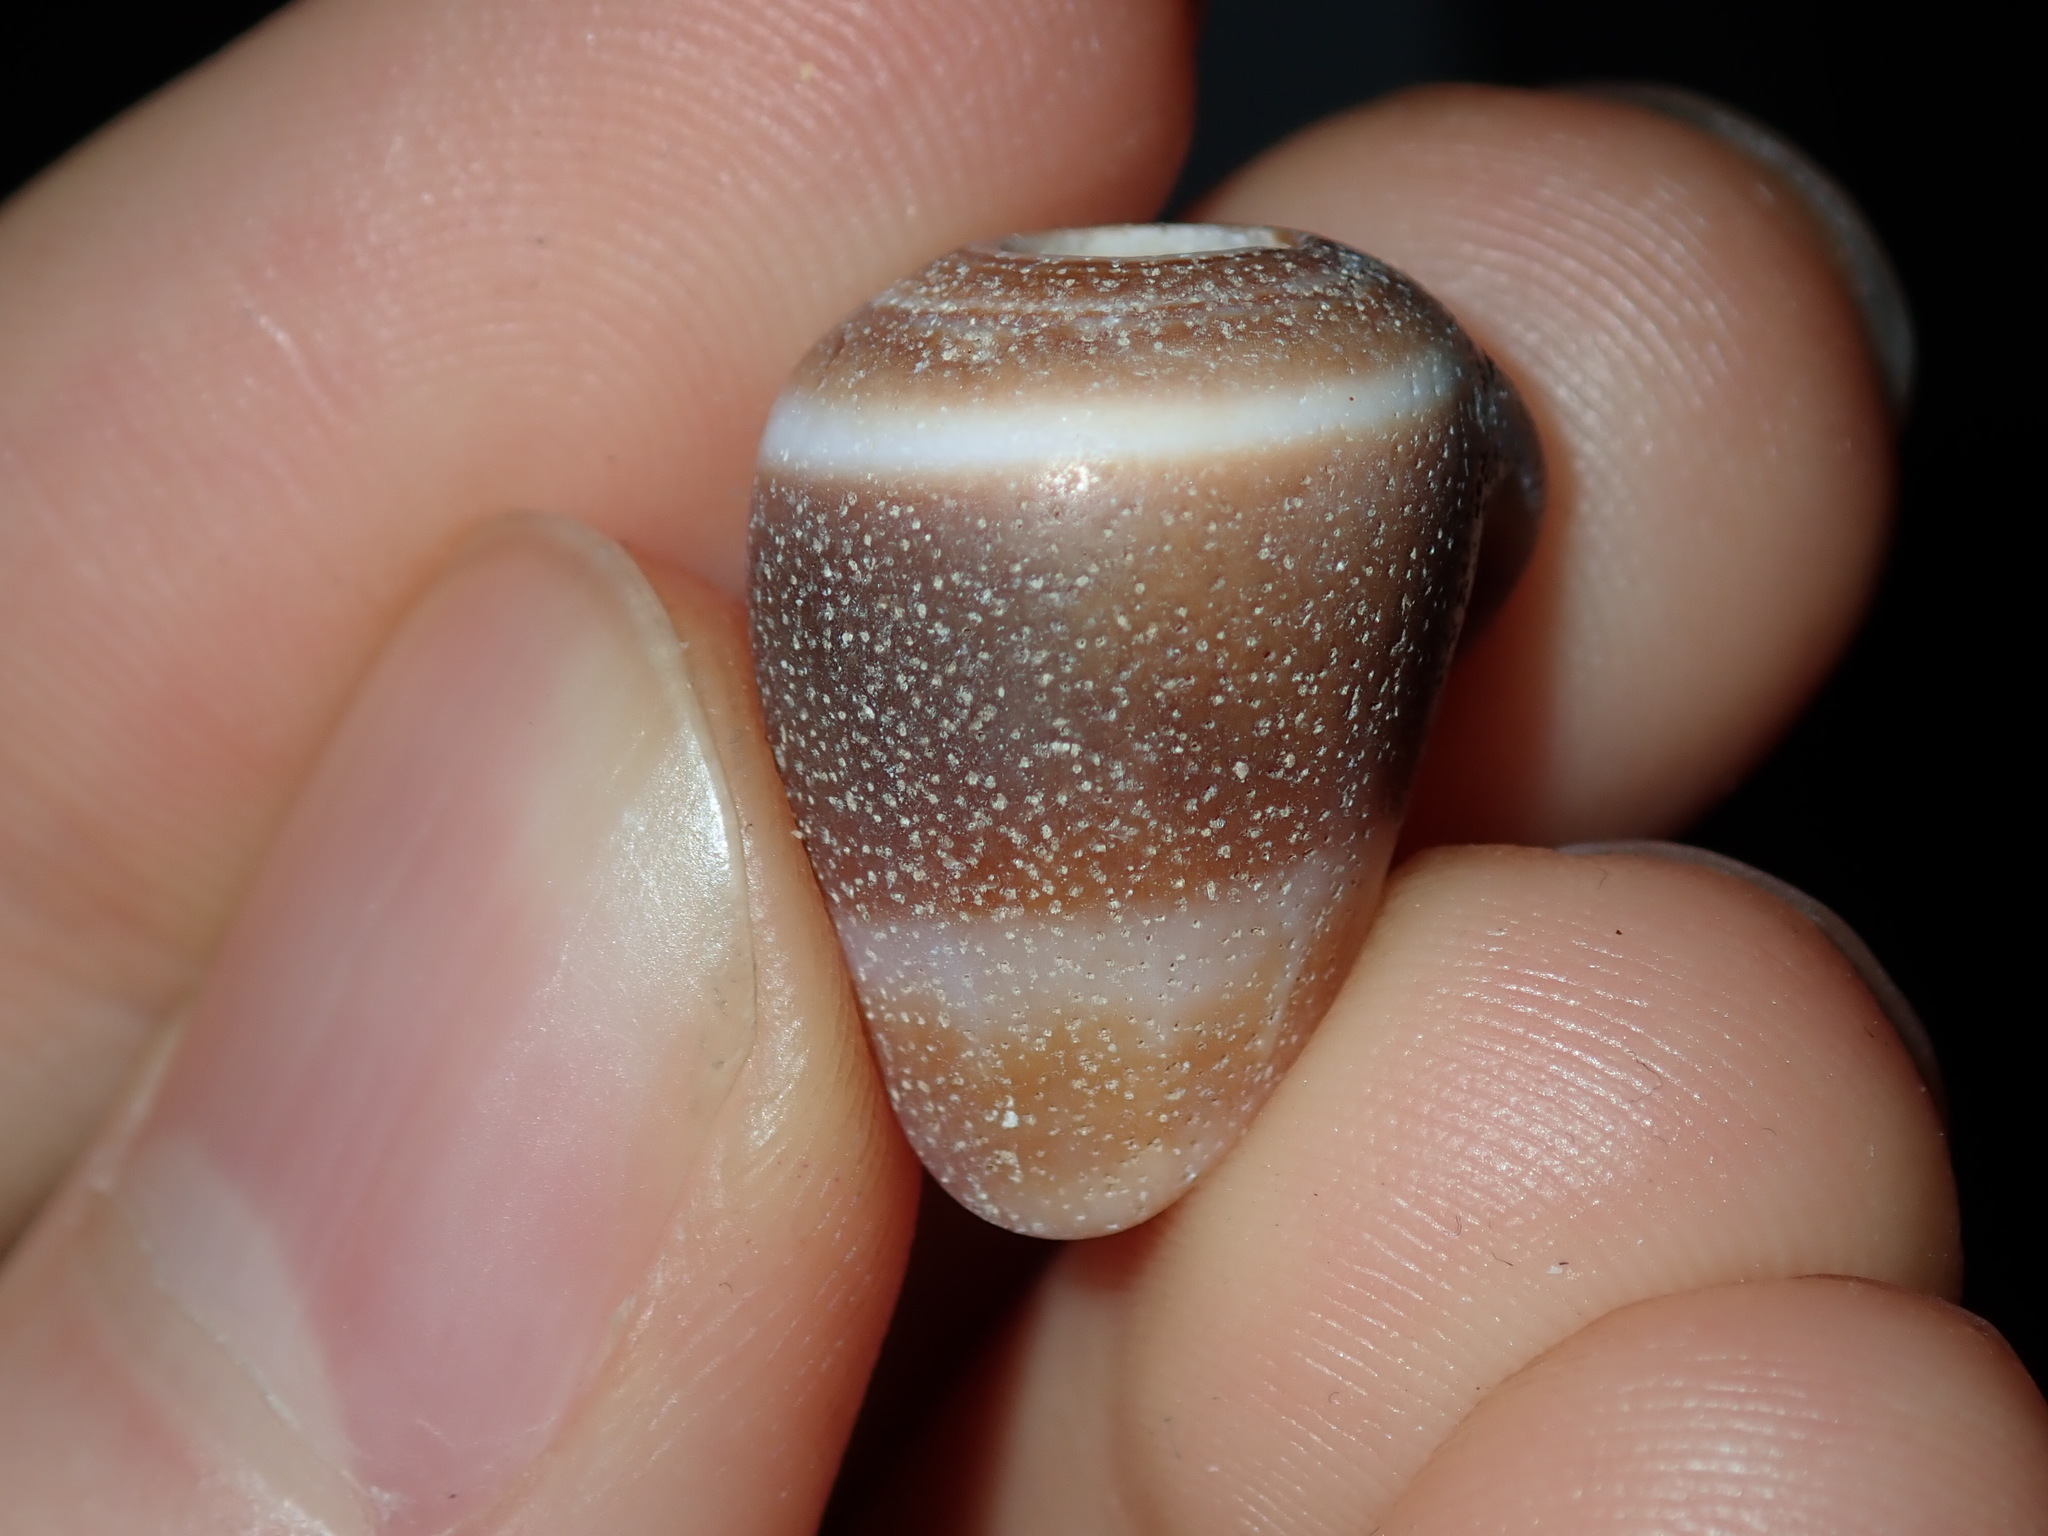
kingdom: Animalia
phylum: Mollusca
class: Gastropoda
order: Neogastropoda
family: Conidae
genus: Conus
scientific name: Conus aplustre
